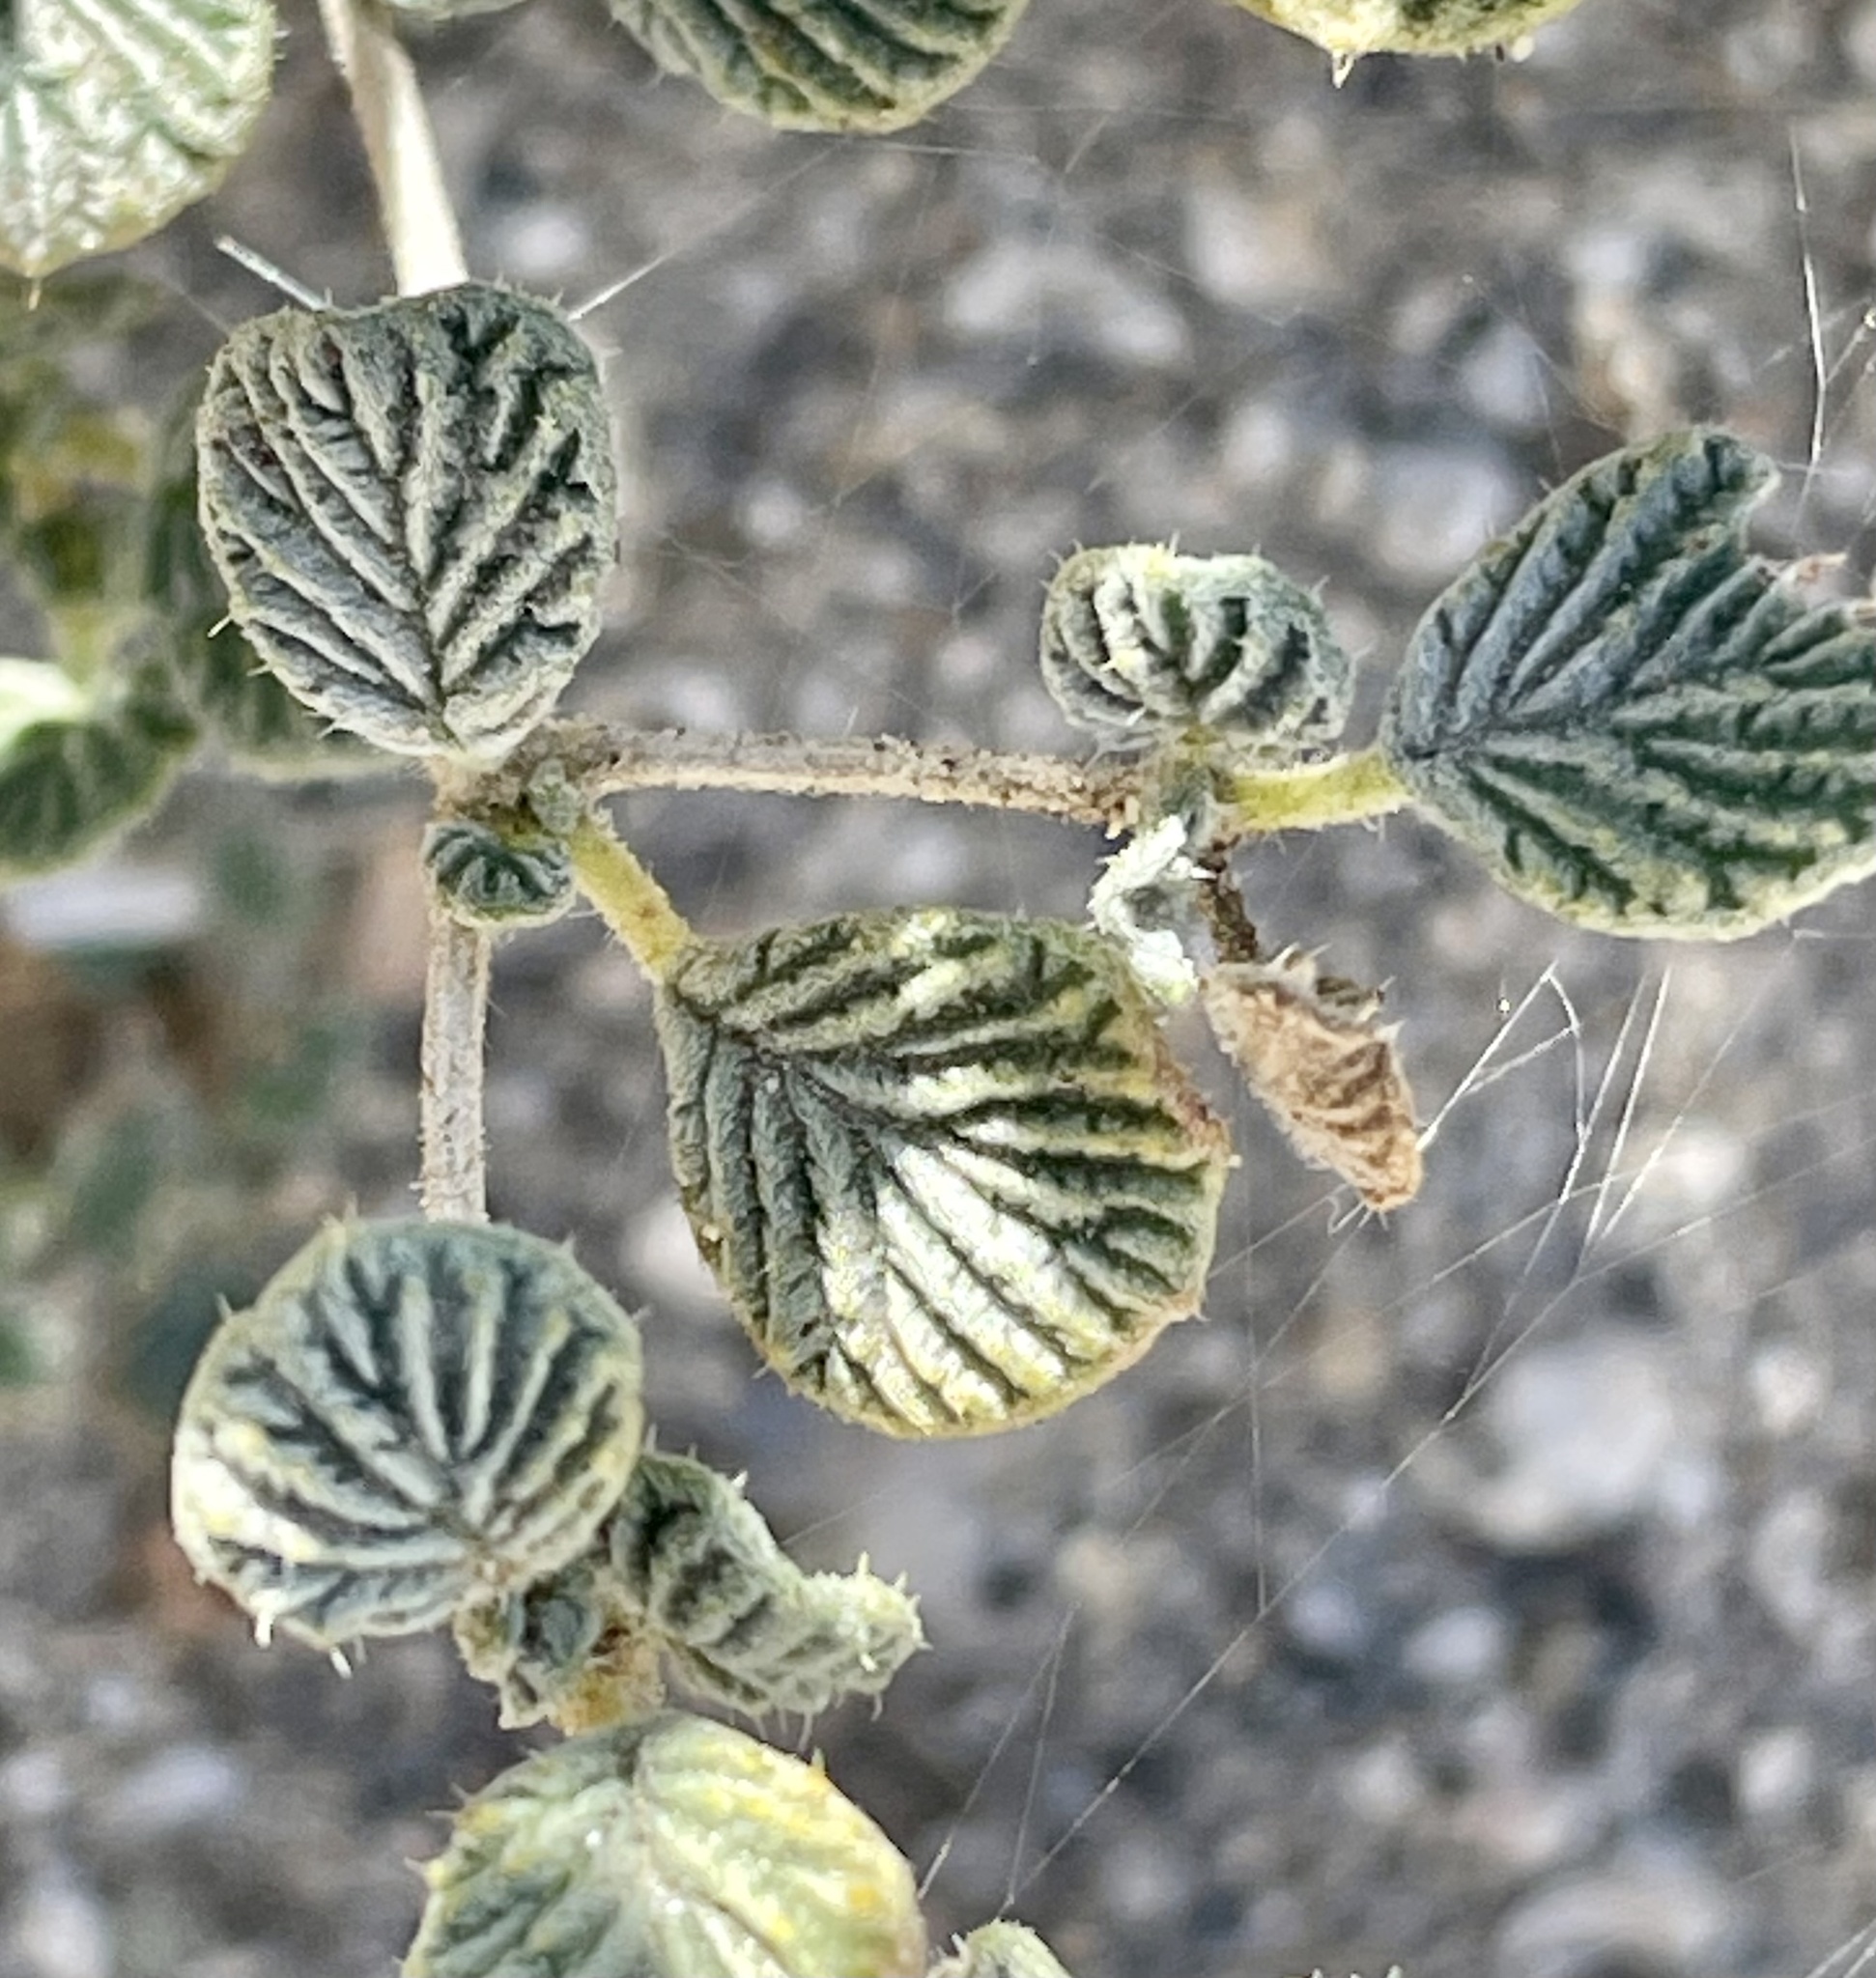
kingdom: Plantae
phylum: Tracheophyta
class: Magnoliopsida
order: Boraginales
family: Ehretiaceae
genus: Tiquilia
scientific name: Tiquilia plicata
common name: Fan-leaf tiquilia
